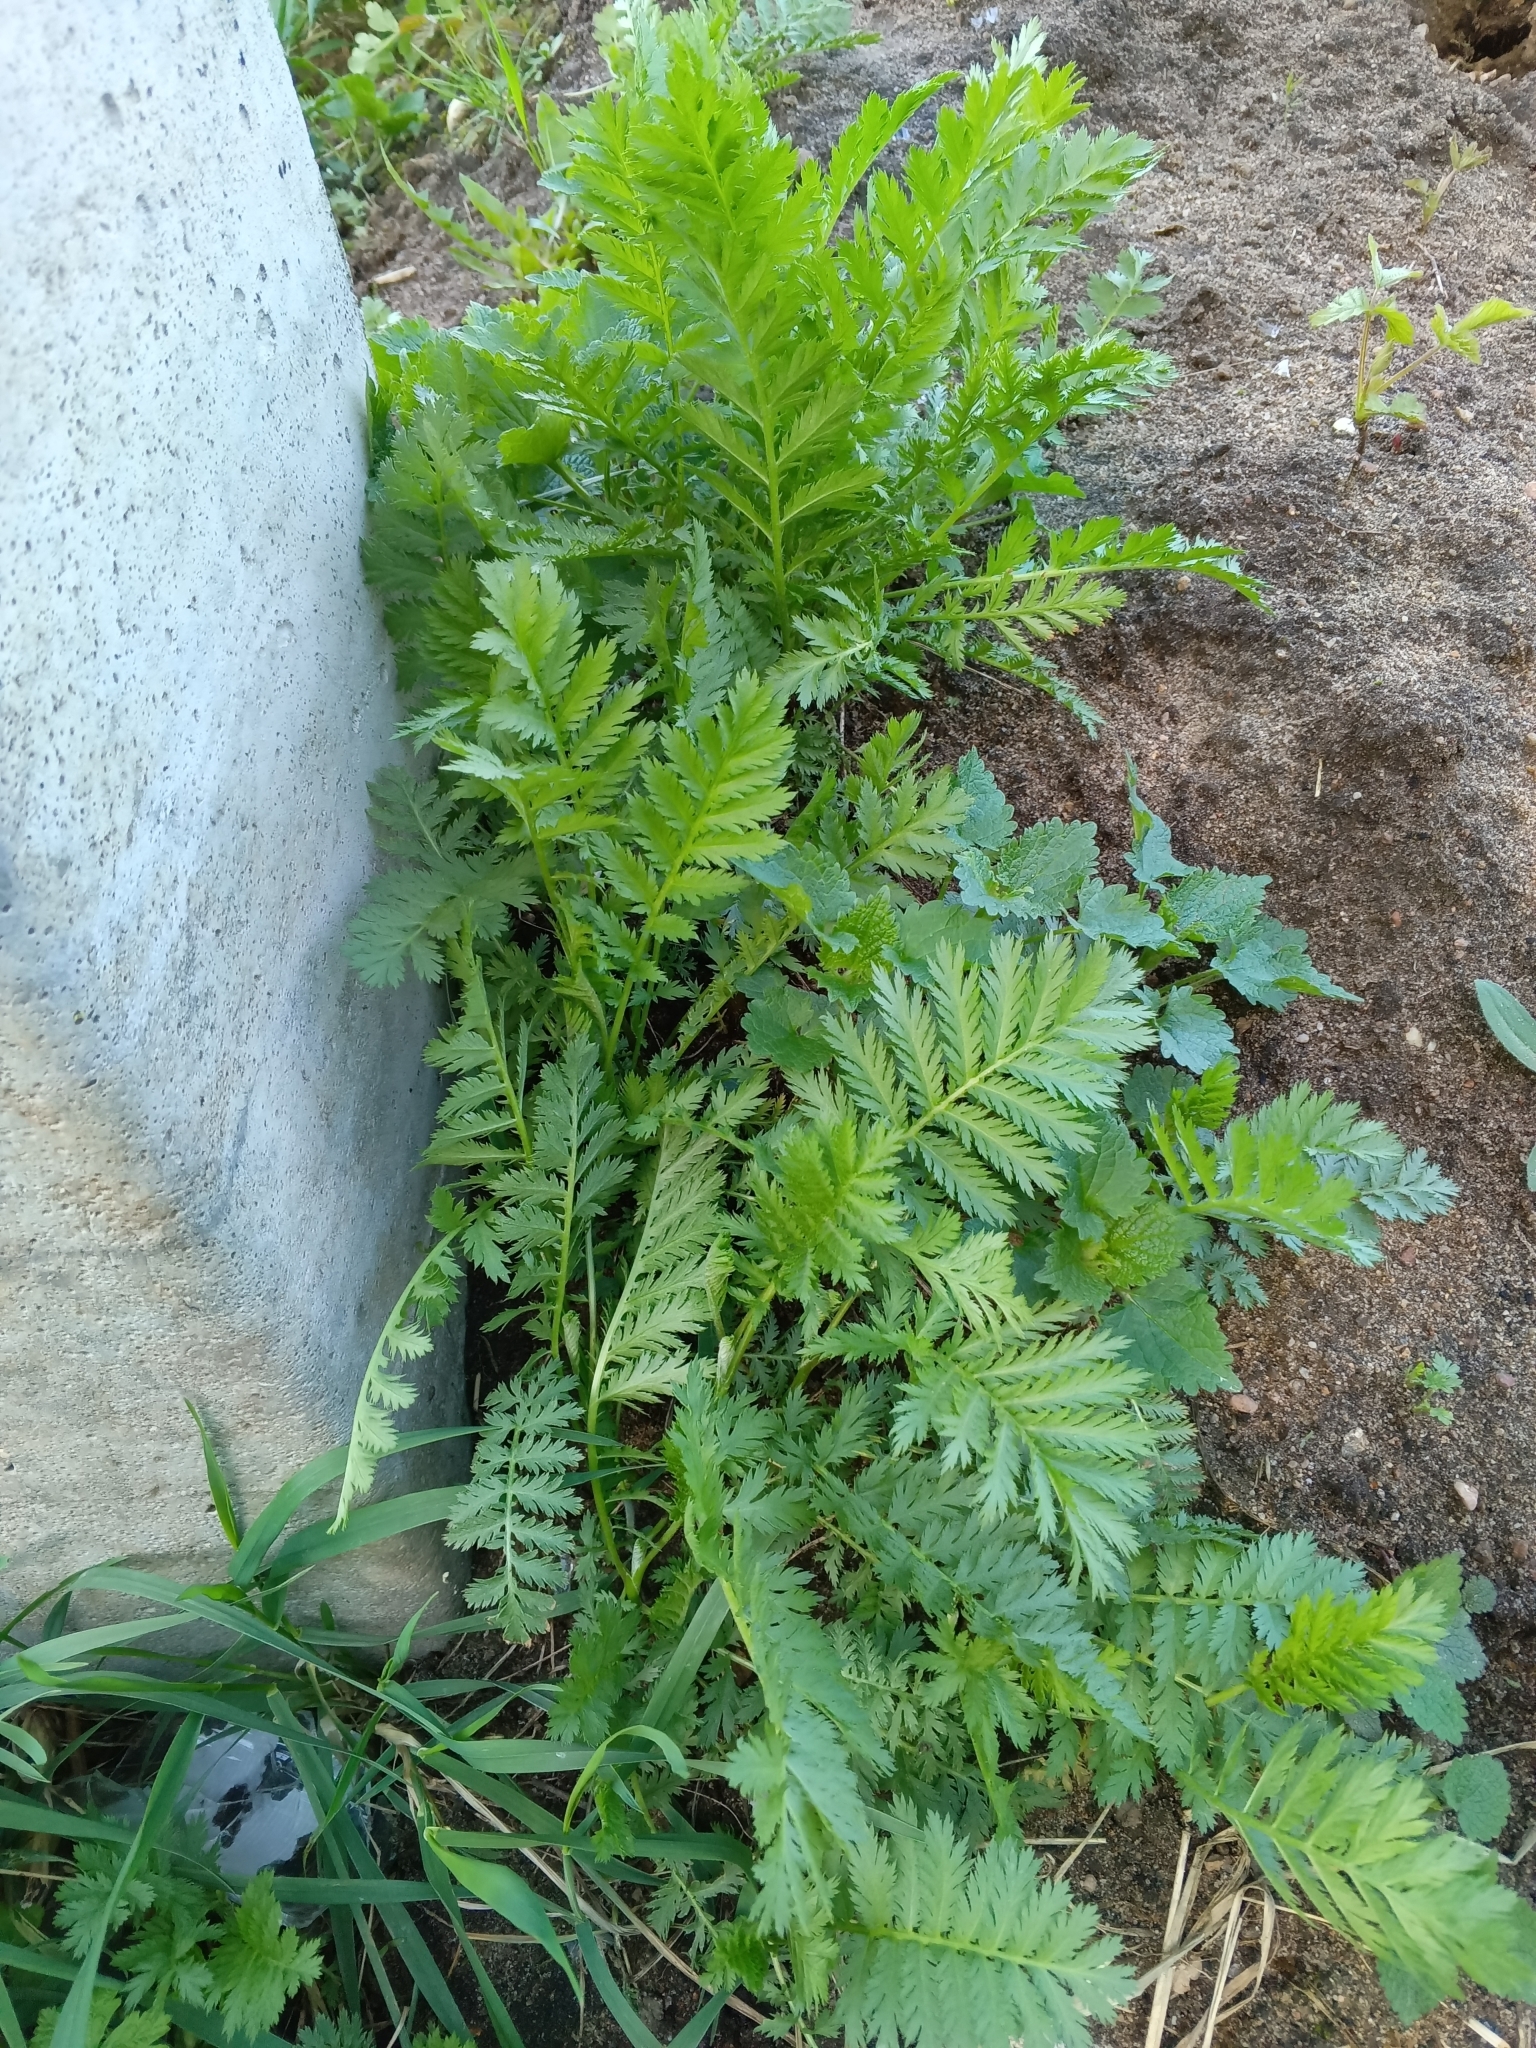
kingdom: Plantae
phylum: Tracheophyta
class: Magnoliopsida
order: Asterales
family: Asteraceae
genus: Tanacetum
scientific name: Tanacetum vulgare
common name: Common tansy
